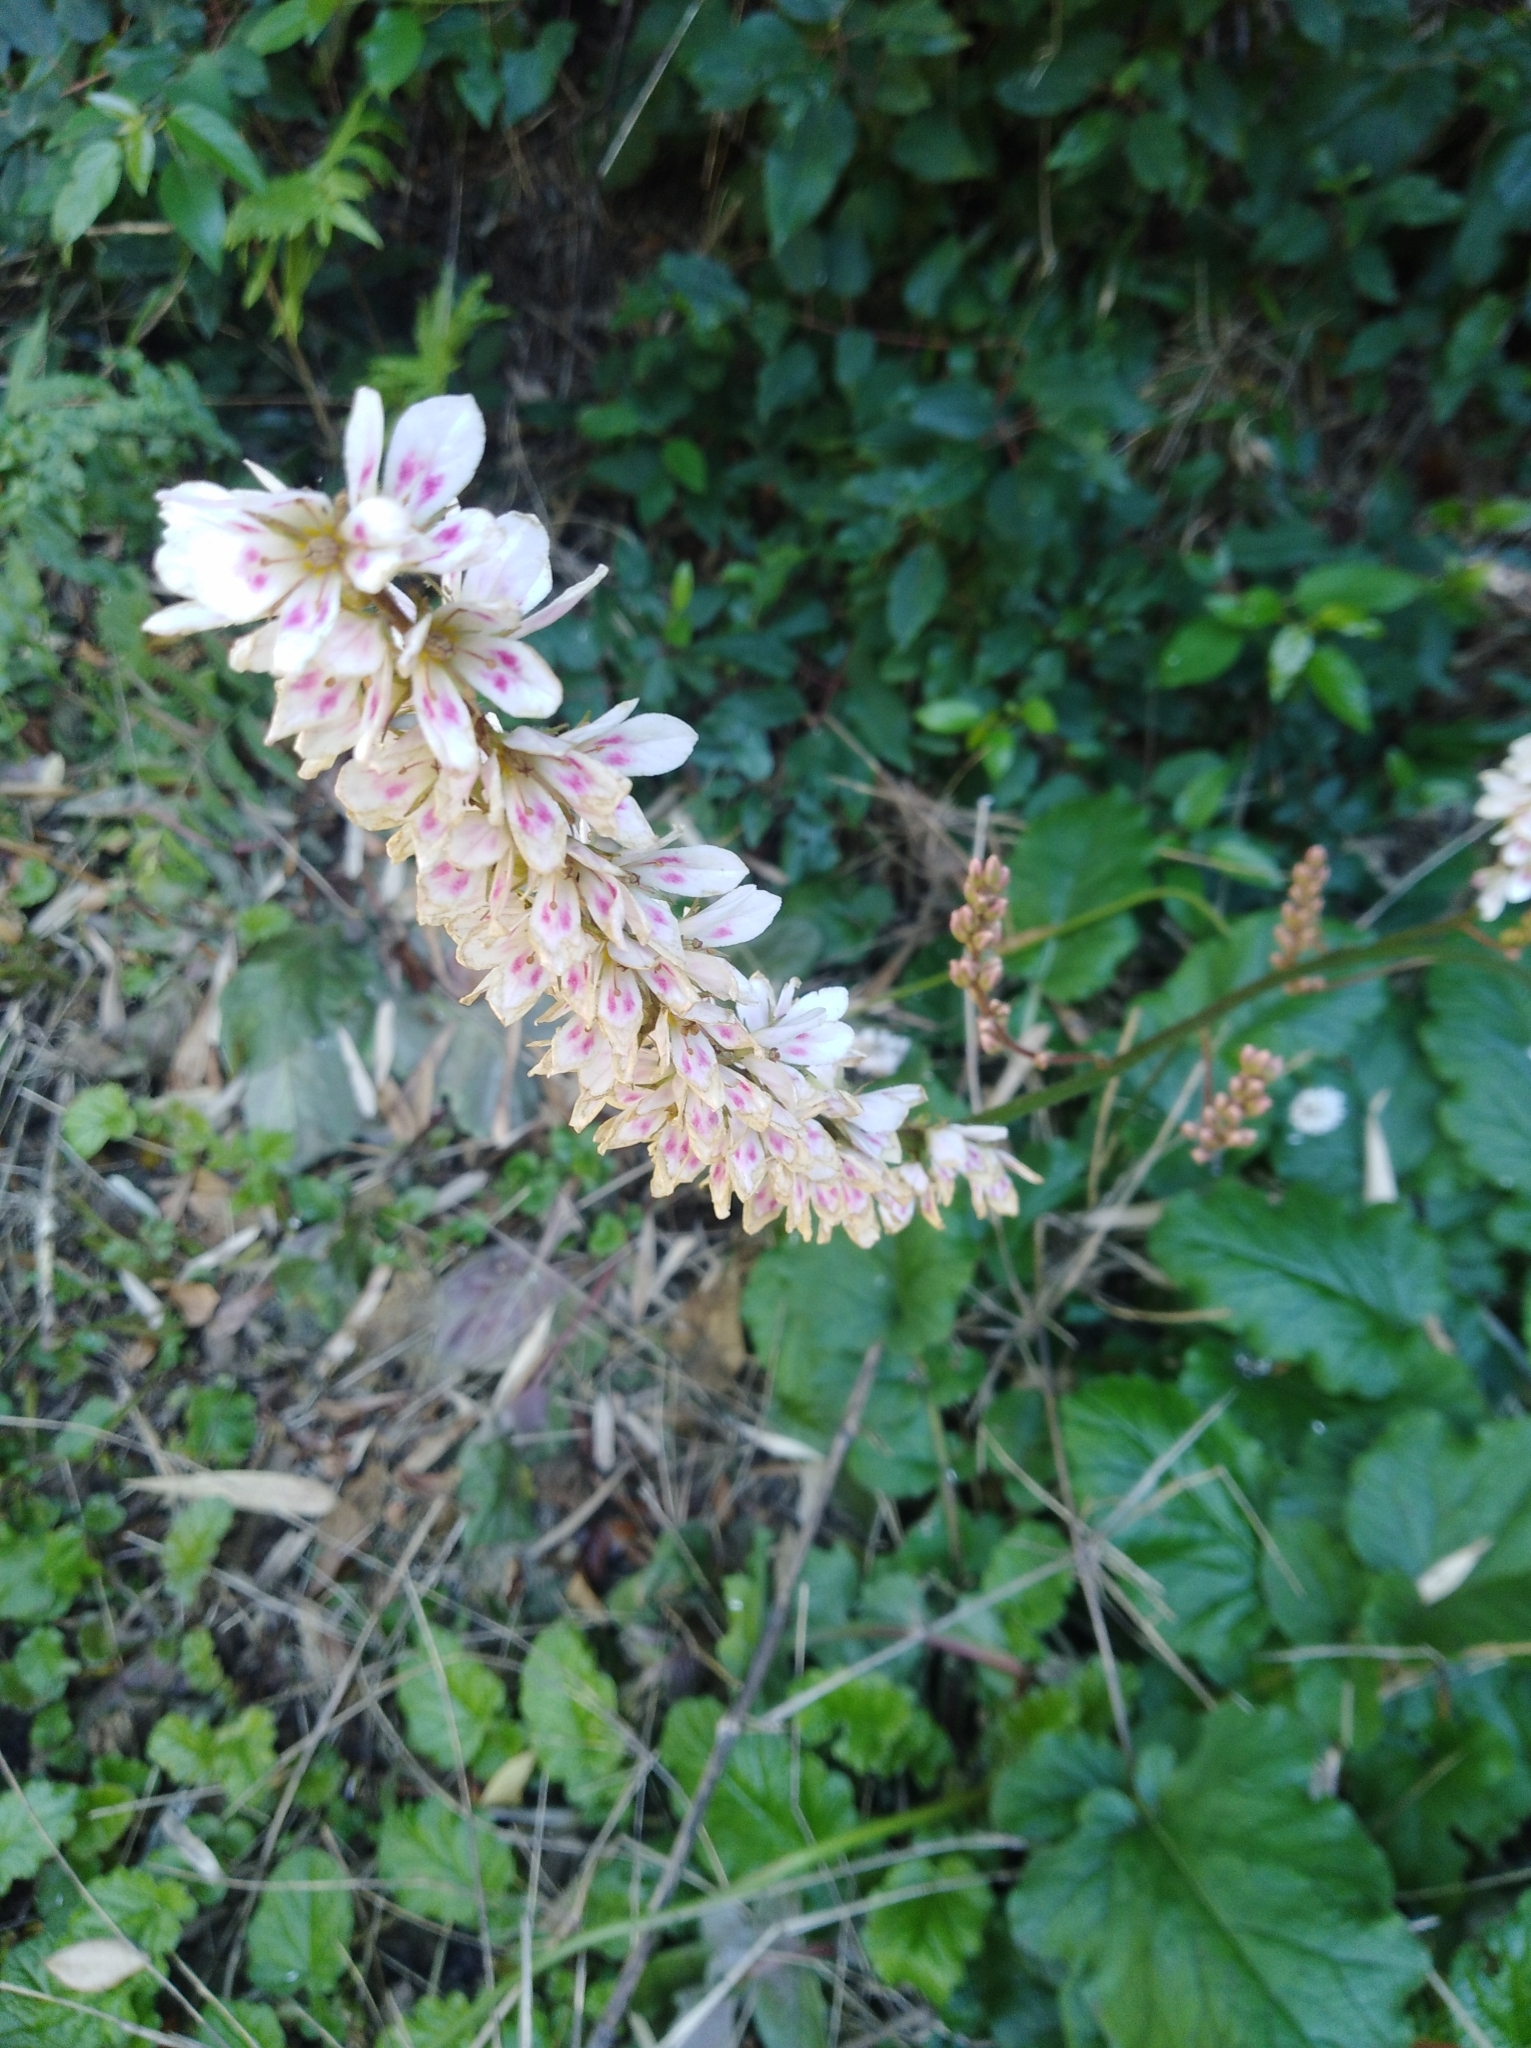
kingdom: Plantae
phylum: Tracheophyta
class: Magnoliopsida
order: Geraniales
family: Francoaceae
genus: Francoa
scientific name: Francoa appendiculata
